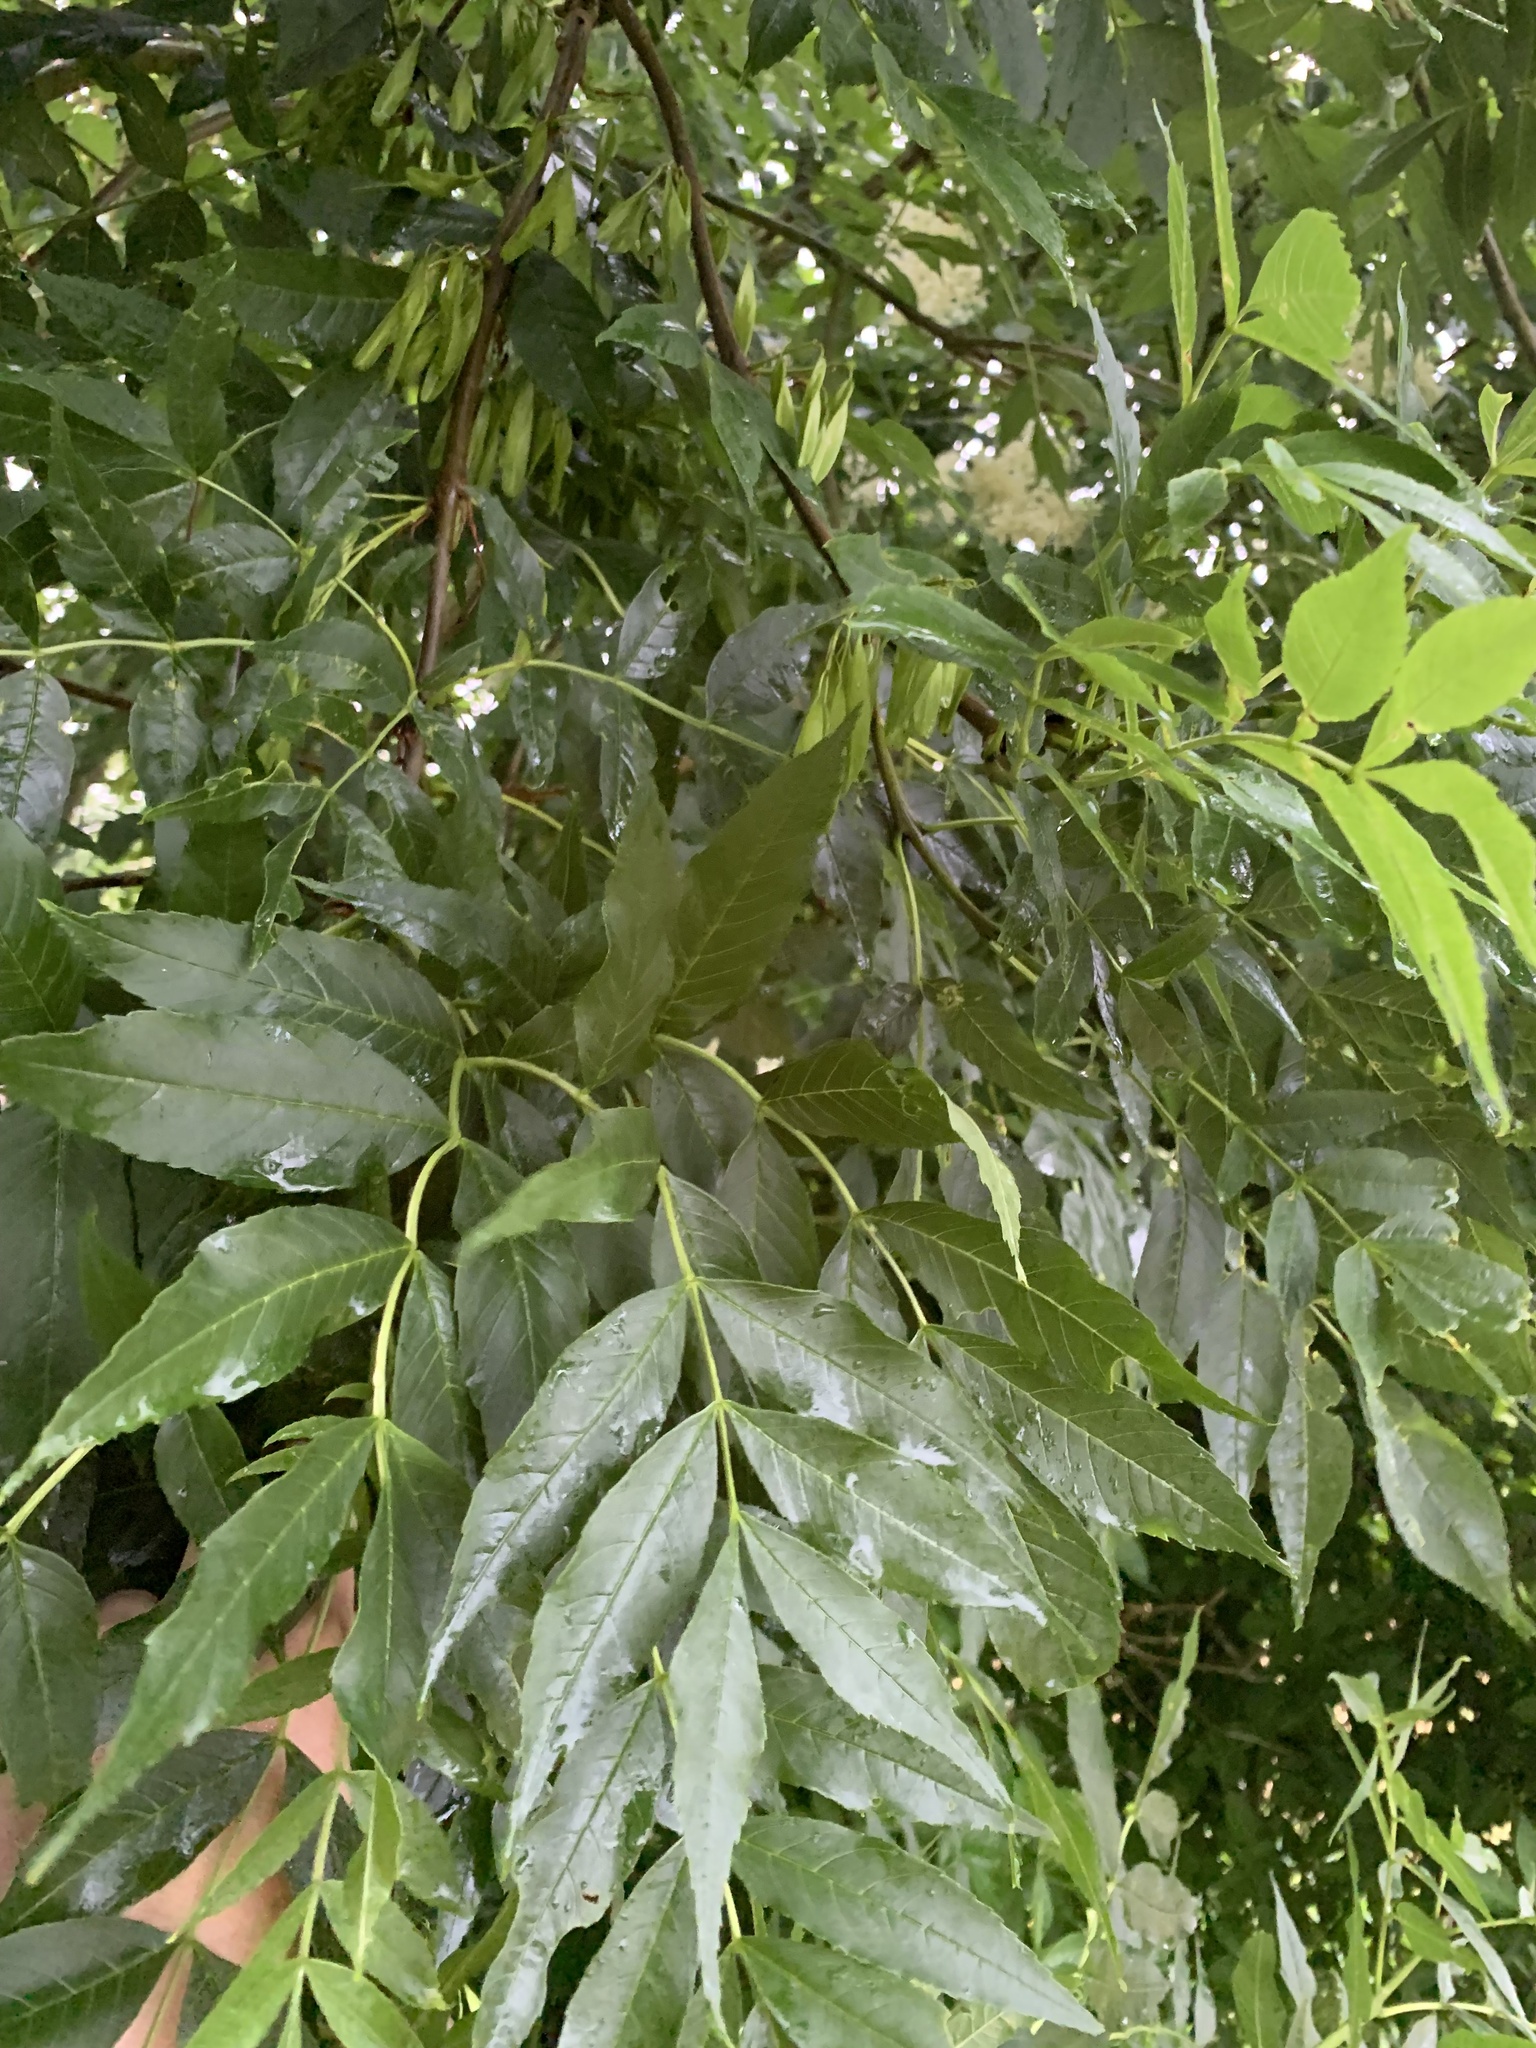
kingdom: Plantae
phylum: Tracheophyta
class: Magnoliopsida
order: Lamiales
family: Oleaceae
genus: Fraxinus
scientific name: Fraxinus excelsior
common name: European ash
